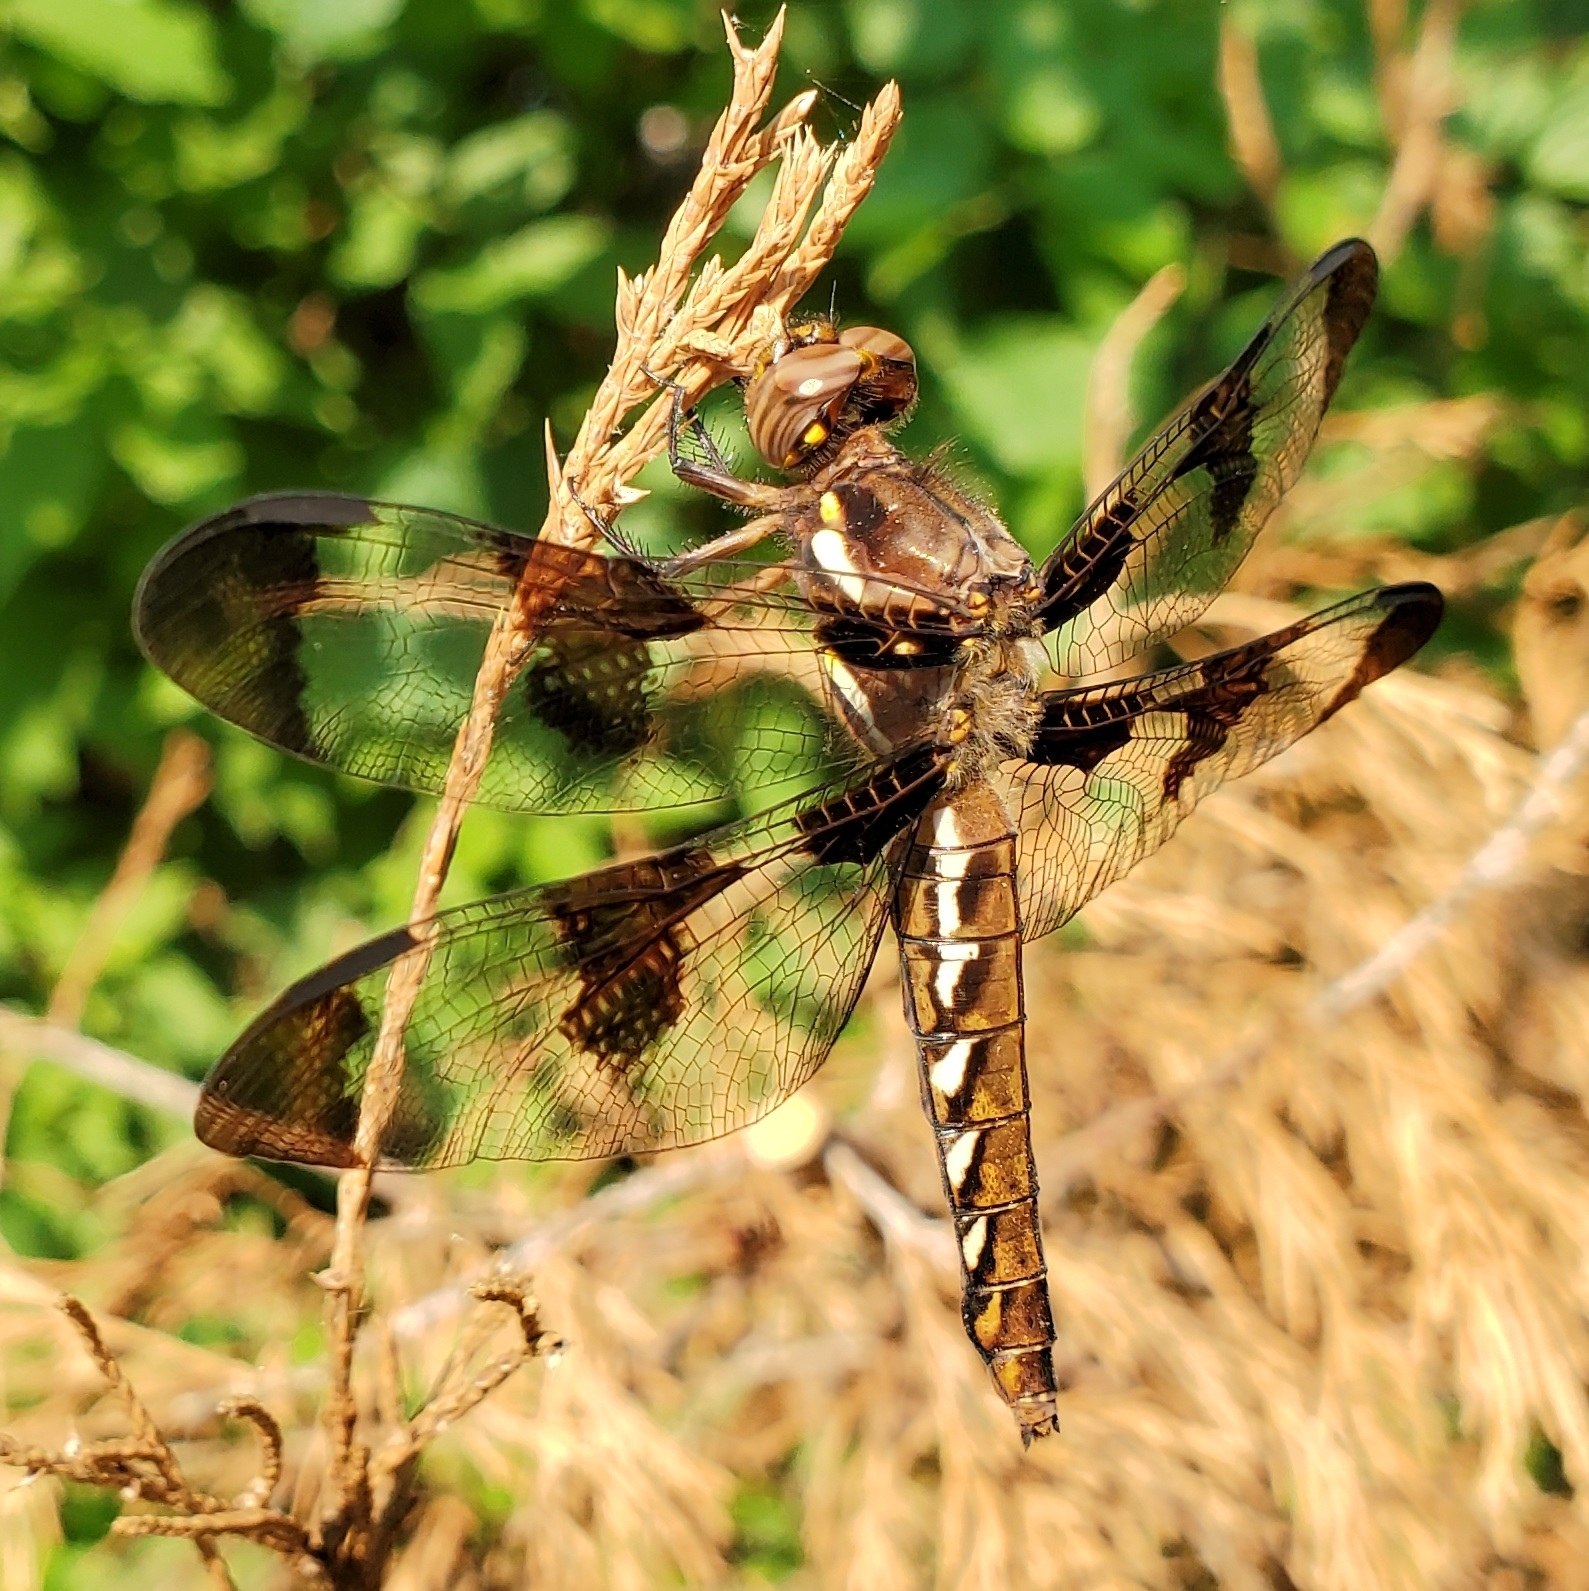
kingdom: Animalia
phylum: Arthropoda
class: Insecta
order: Odonata
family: Libellulidae
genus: Plathemis
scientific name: Plathemis lydia
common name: Common whitetail
